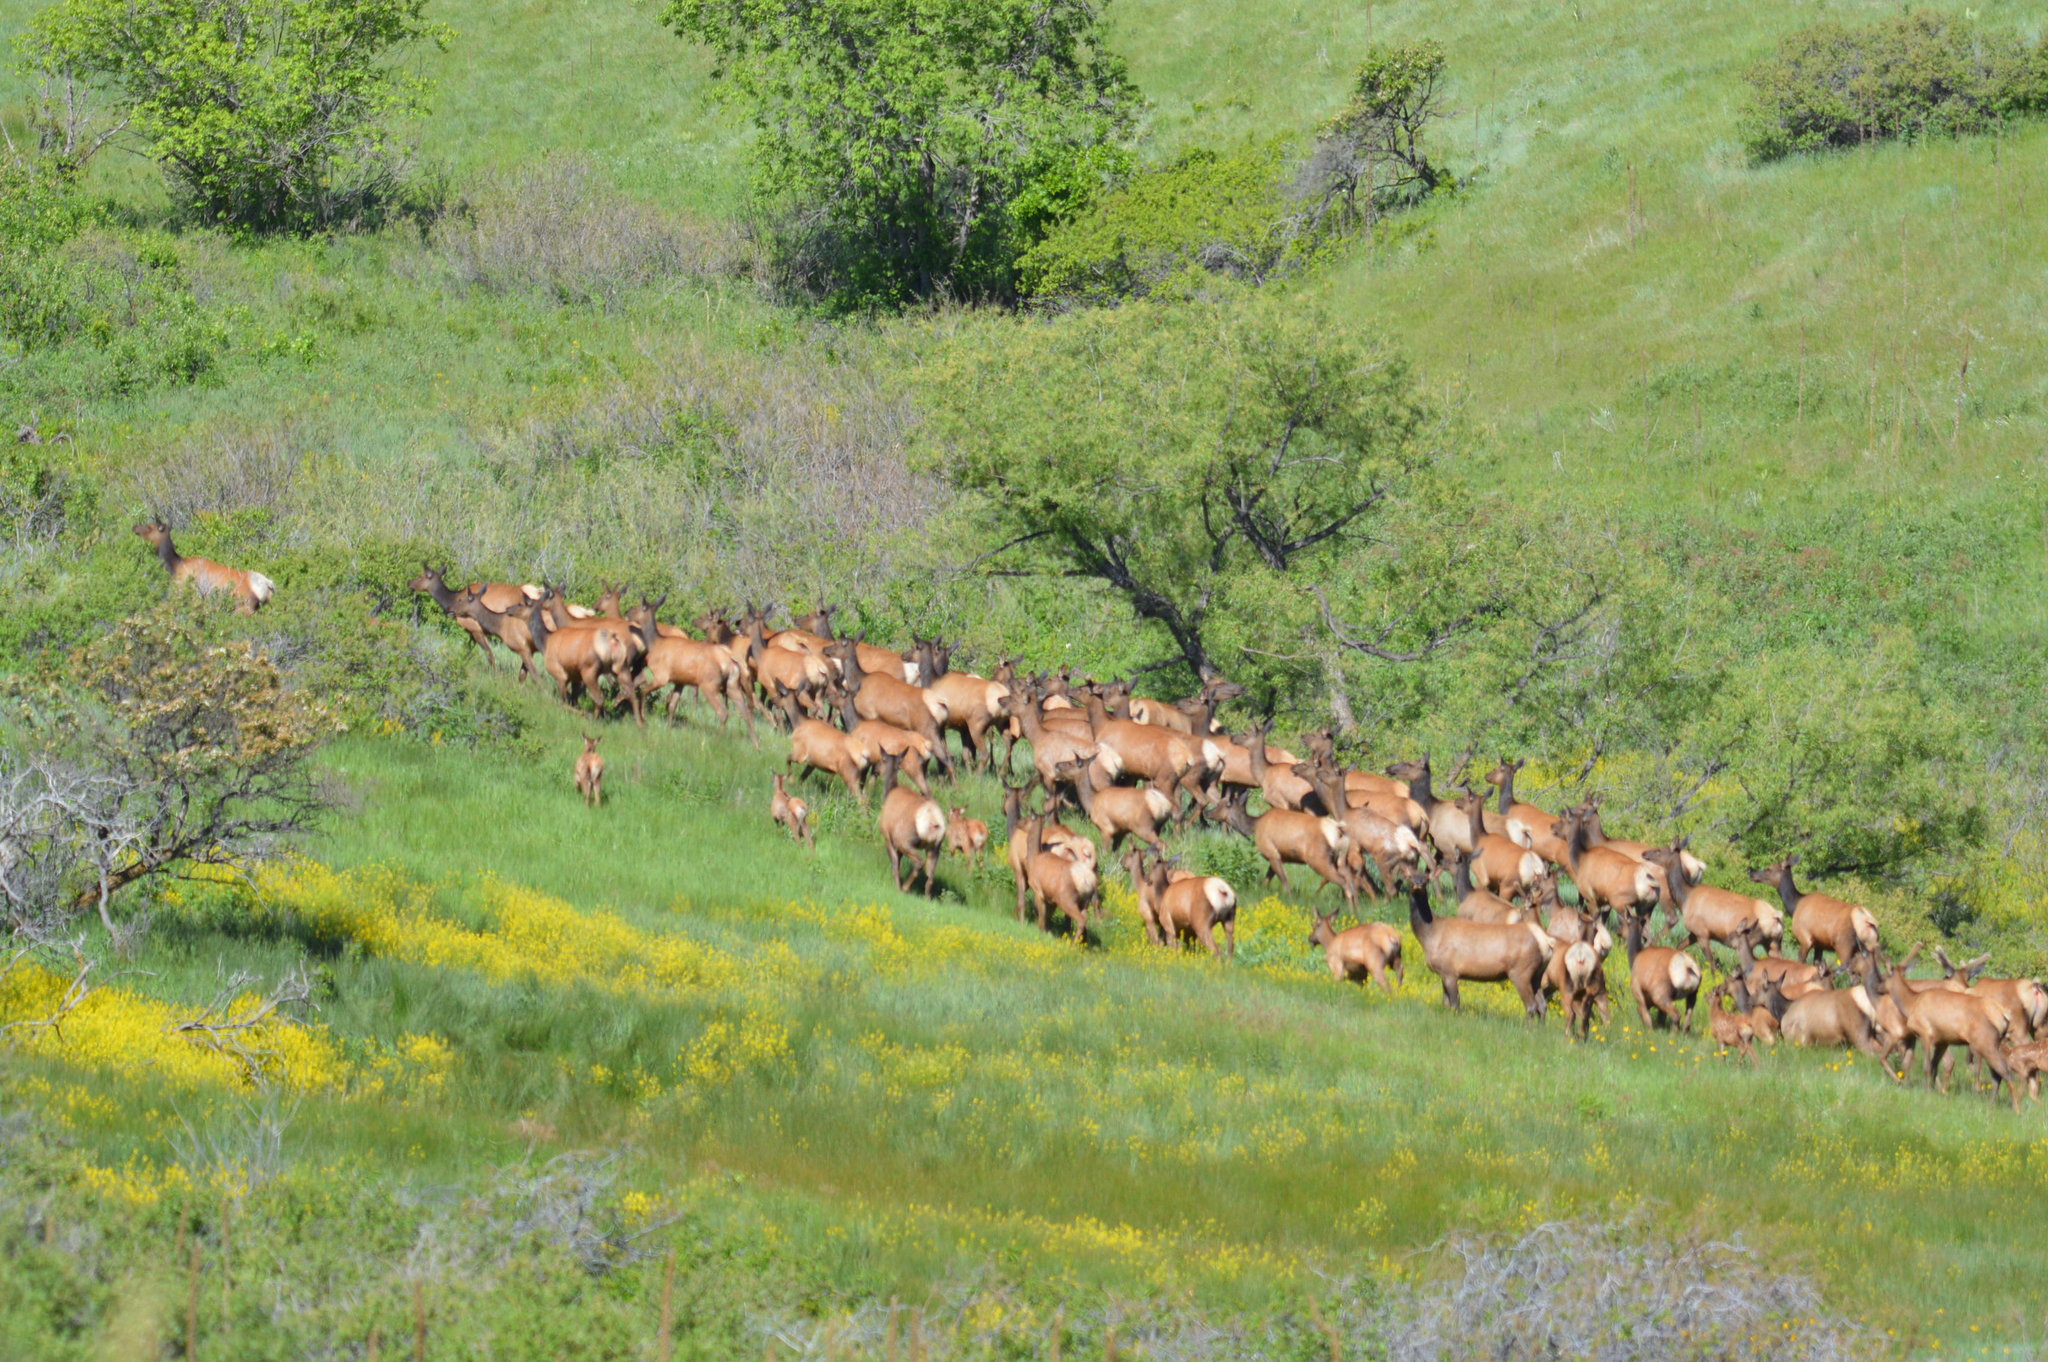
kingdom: Animalia
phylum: Chordata
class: Mammalia
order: Artiodactyla
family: Cervidae
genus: Cervus
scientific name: Cervus elaphus
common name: Red deer
